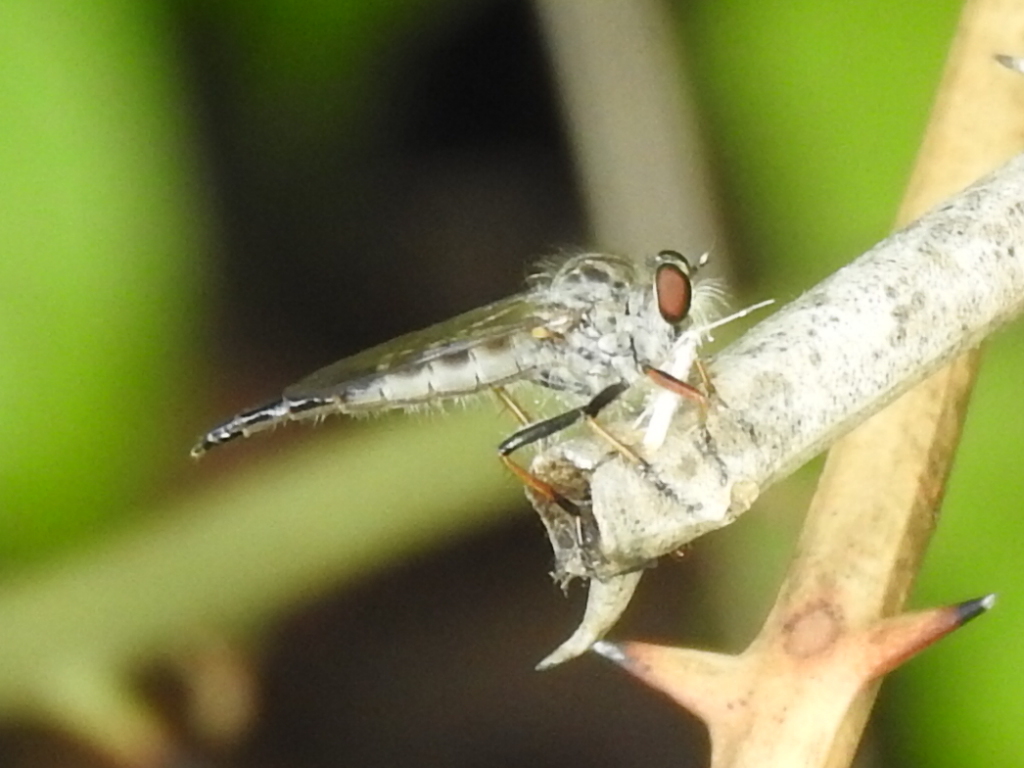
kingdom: Animalia
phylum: Arthropoda
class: Insecta
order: Diptera
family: Asilidae
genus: Asilus
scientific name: Asilus flavofemoratus
